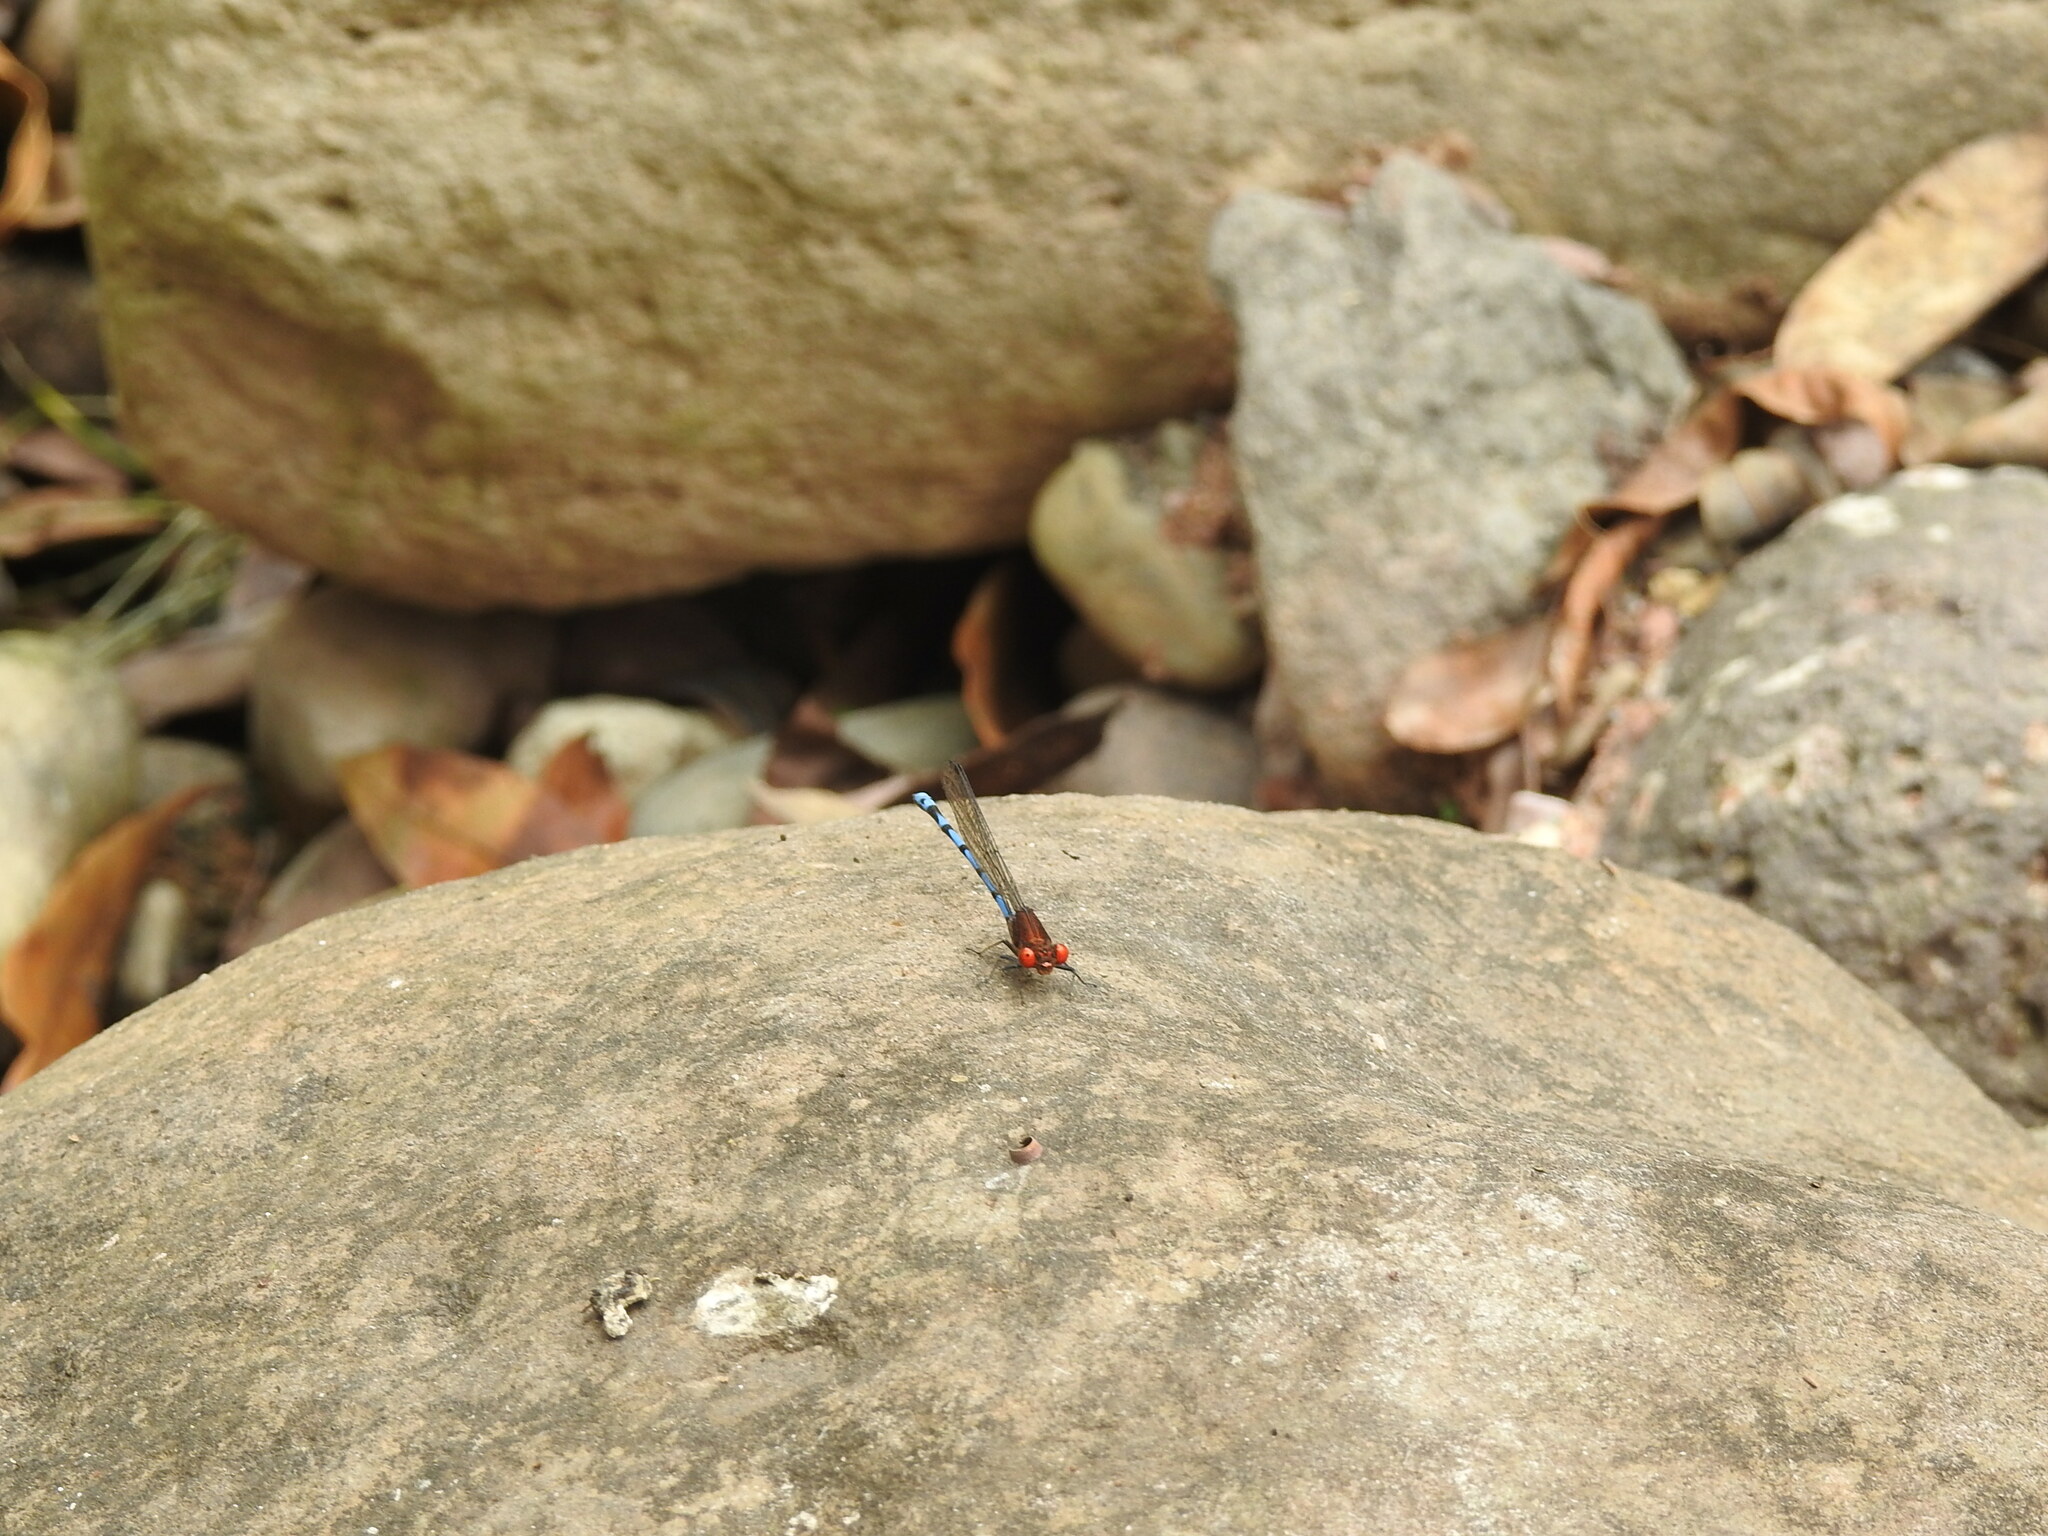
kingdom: Animalia
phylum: Arthropoda
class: Insecta
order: Odonata
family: Coenagrionidae
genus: Argia
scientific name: Argia joergenseni
